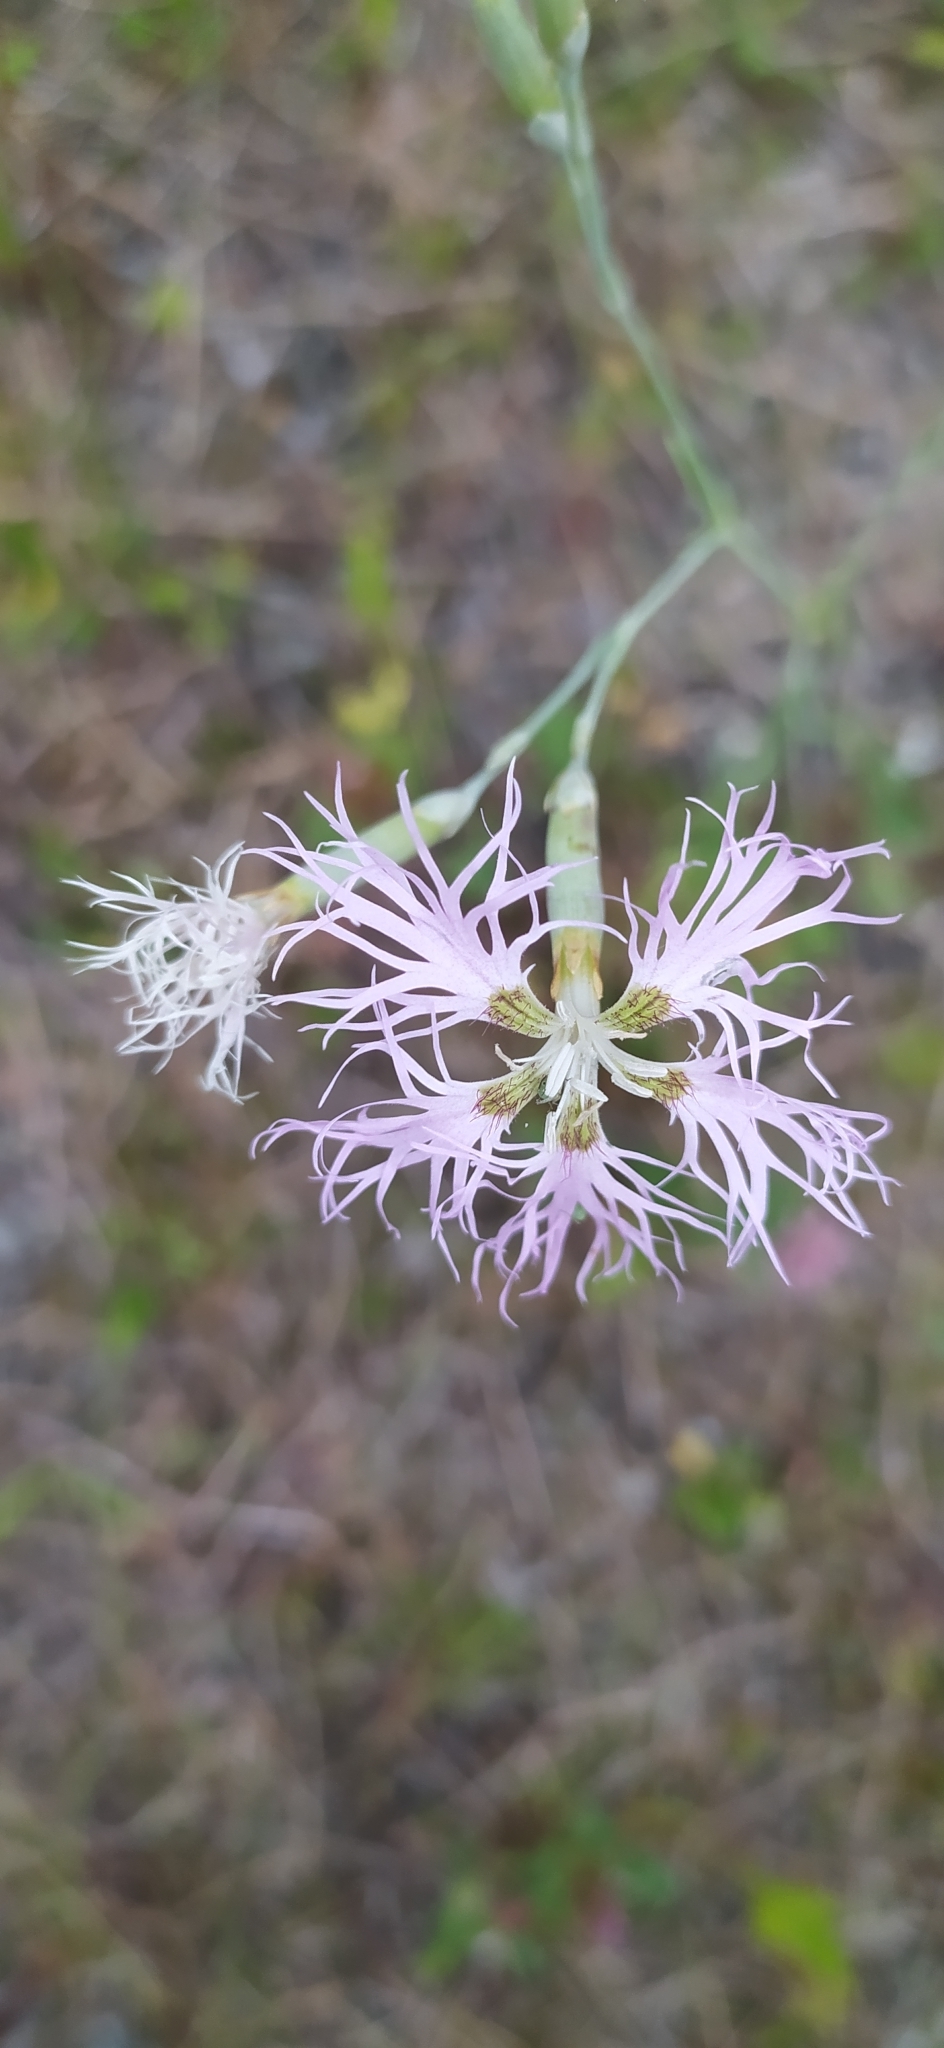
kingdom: Plantae
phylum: Tracheophyta
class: Magnoliopsida
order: Caryophyllales
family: Caryophyllaceae
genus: Dianthus
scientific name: Dianthus superbus
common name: Fringed pink
